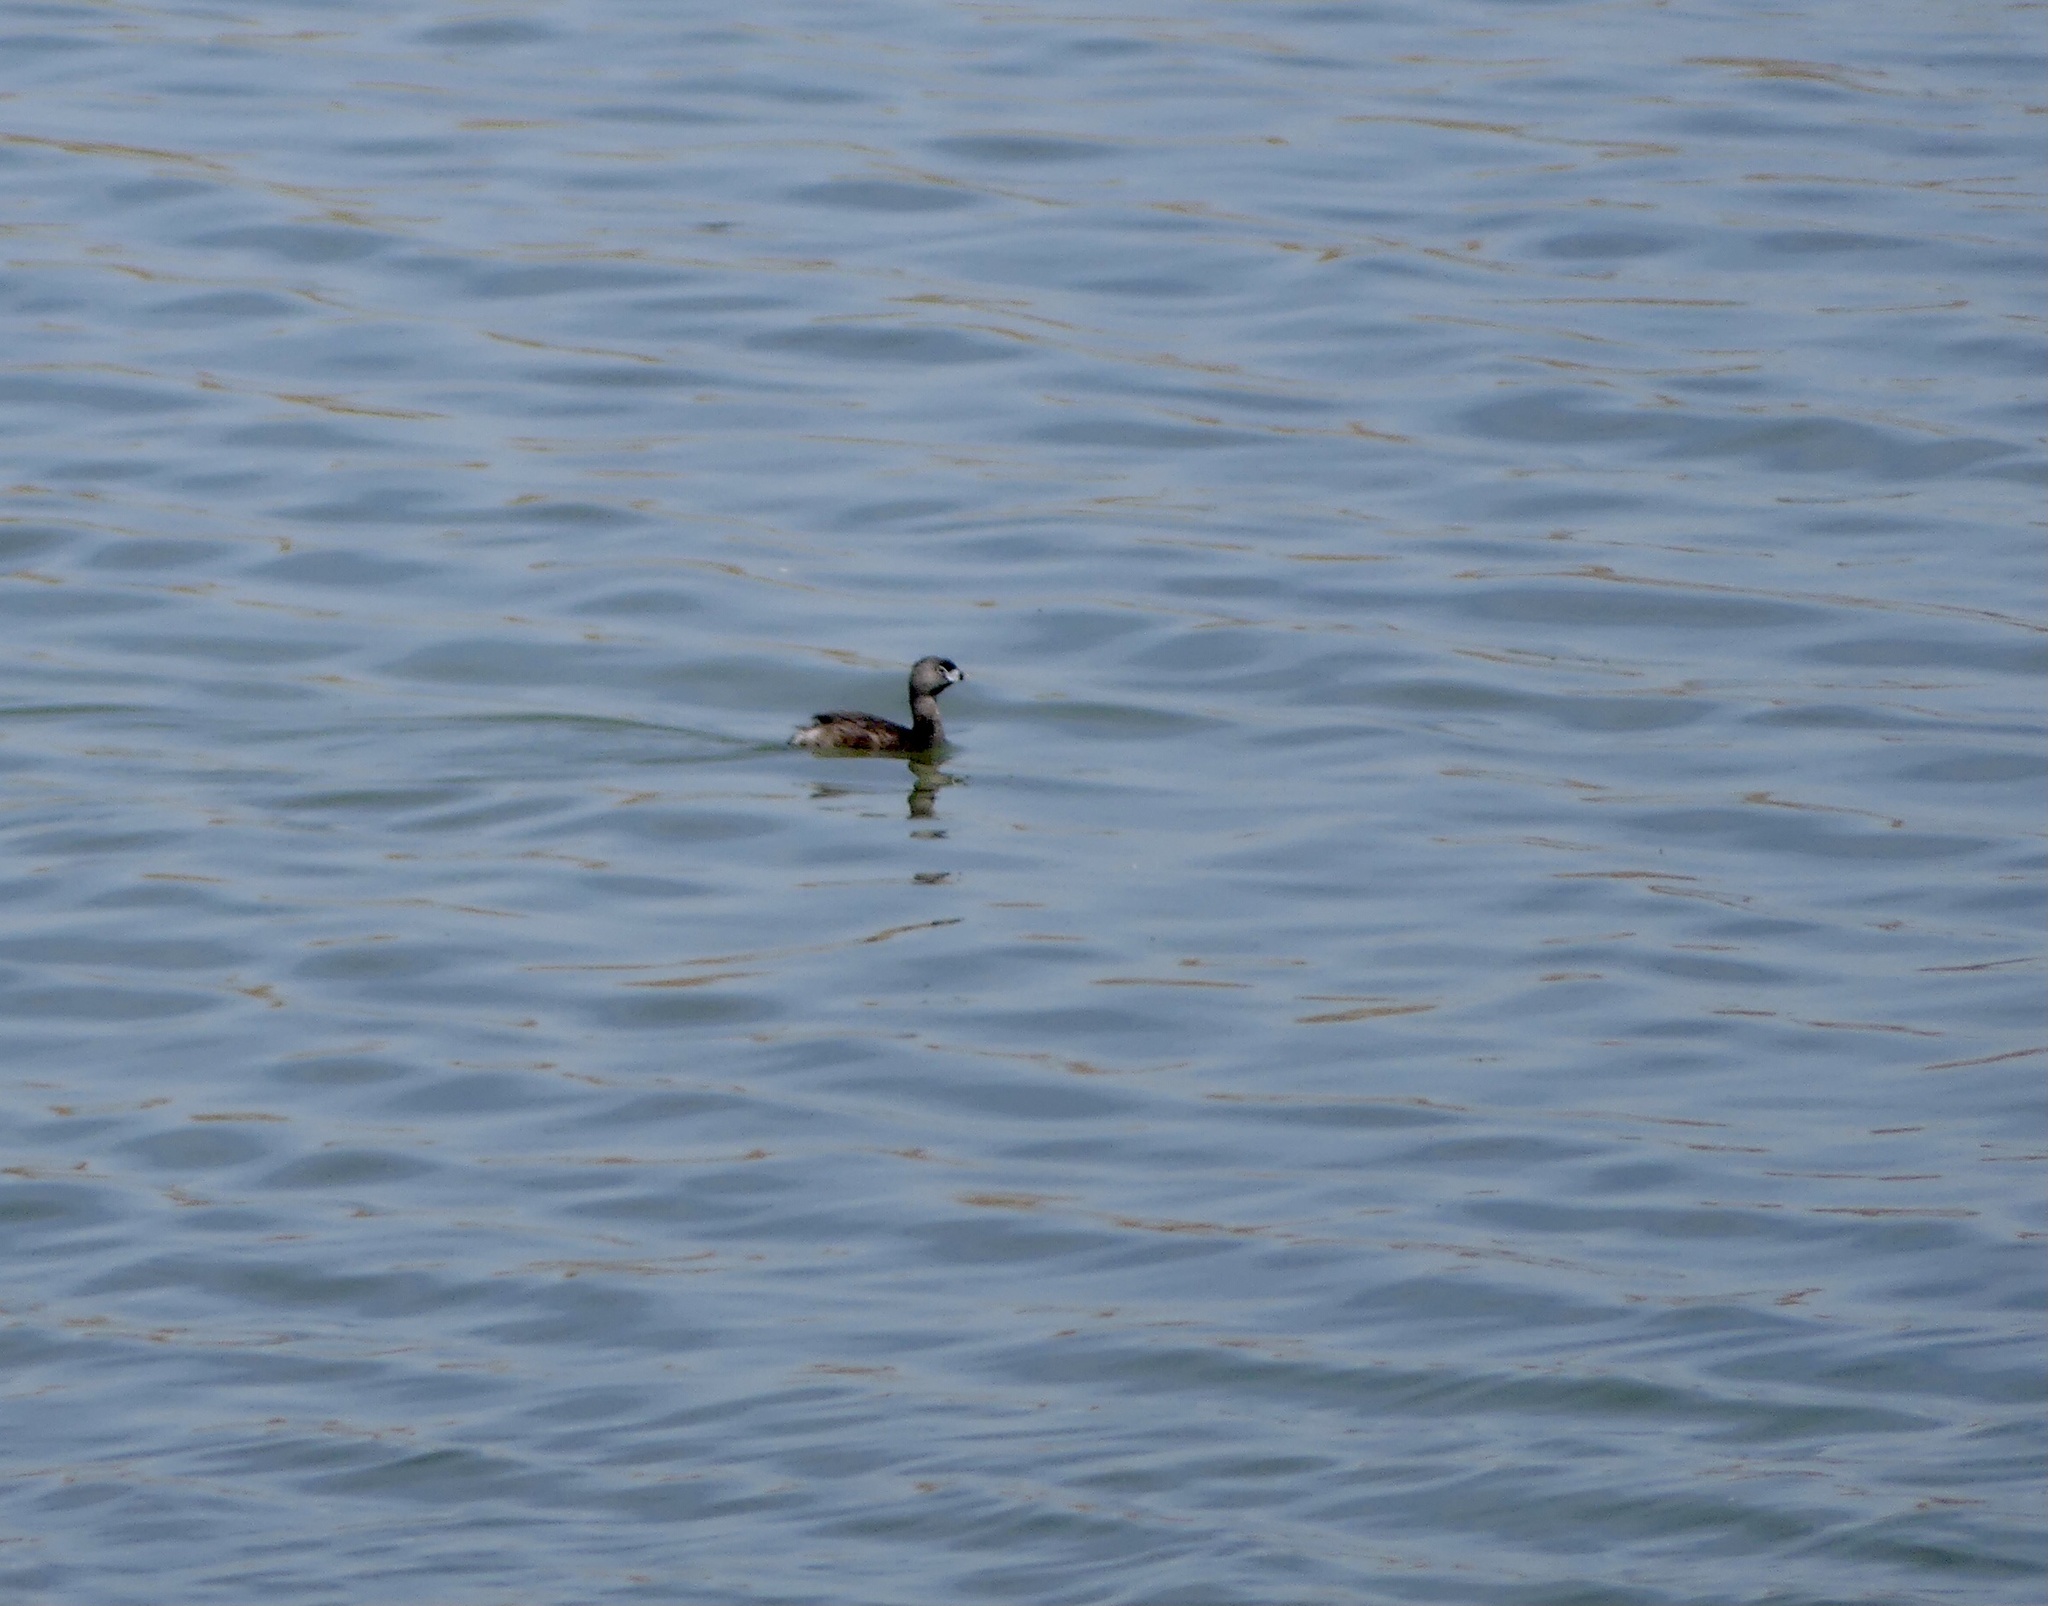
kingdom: Animalia
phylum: Chordata
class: Aves
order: Podicipediformes
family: Podicipedidae
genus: Podilymbus
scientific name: Podilymbus podiceps
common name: Pied-billed grebe
